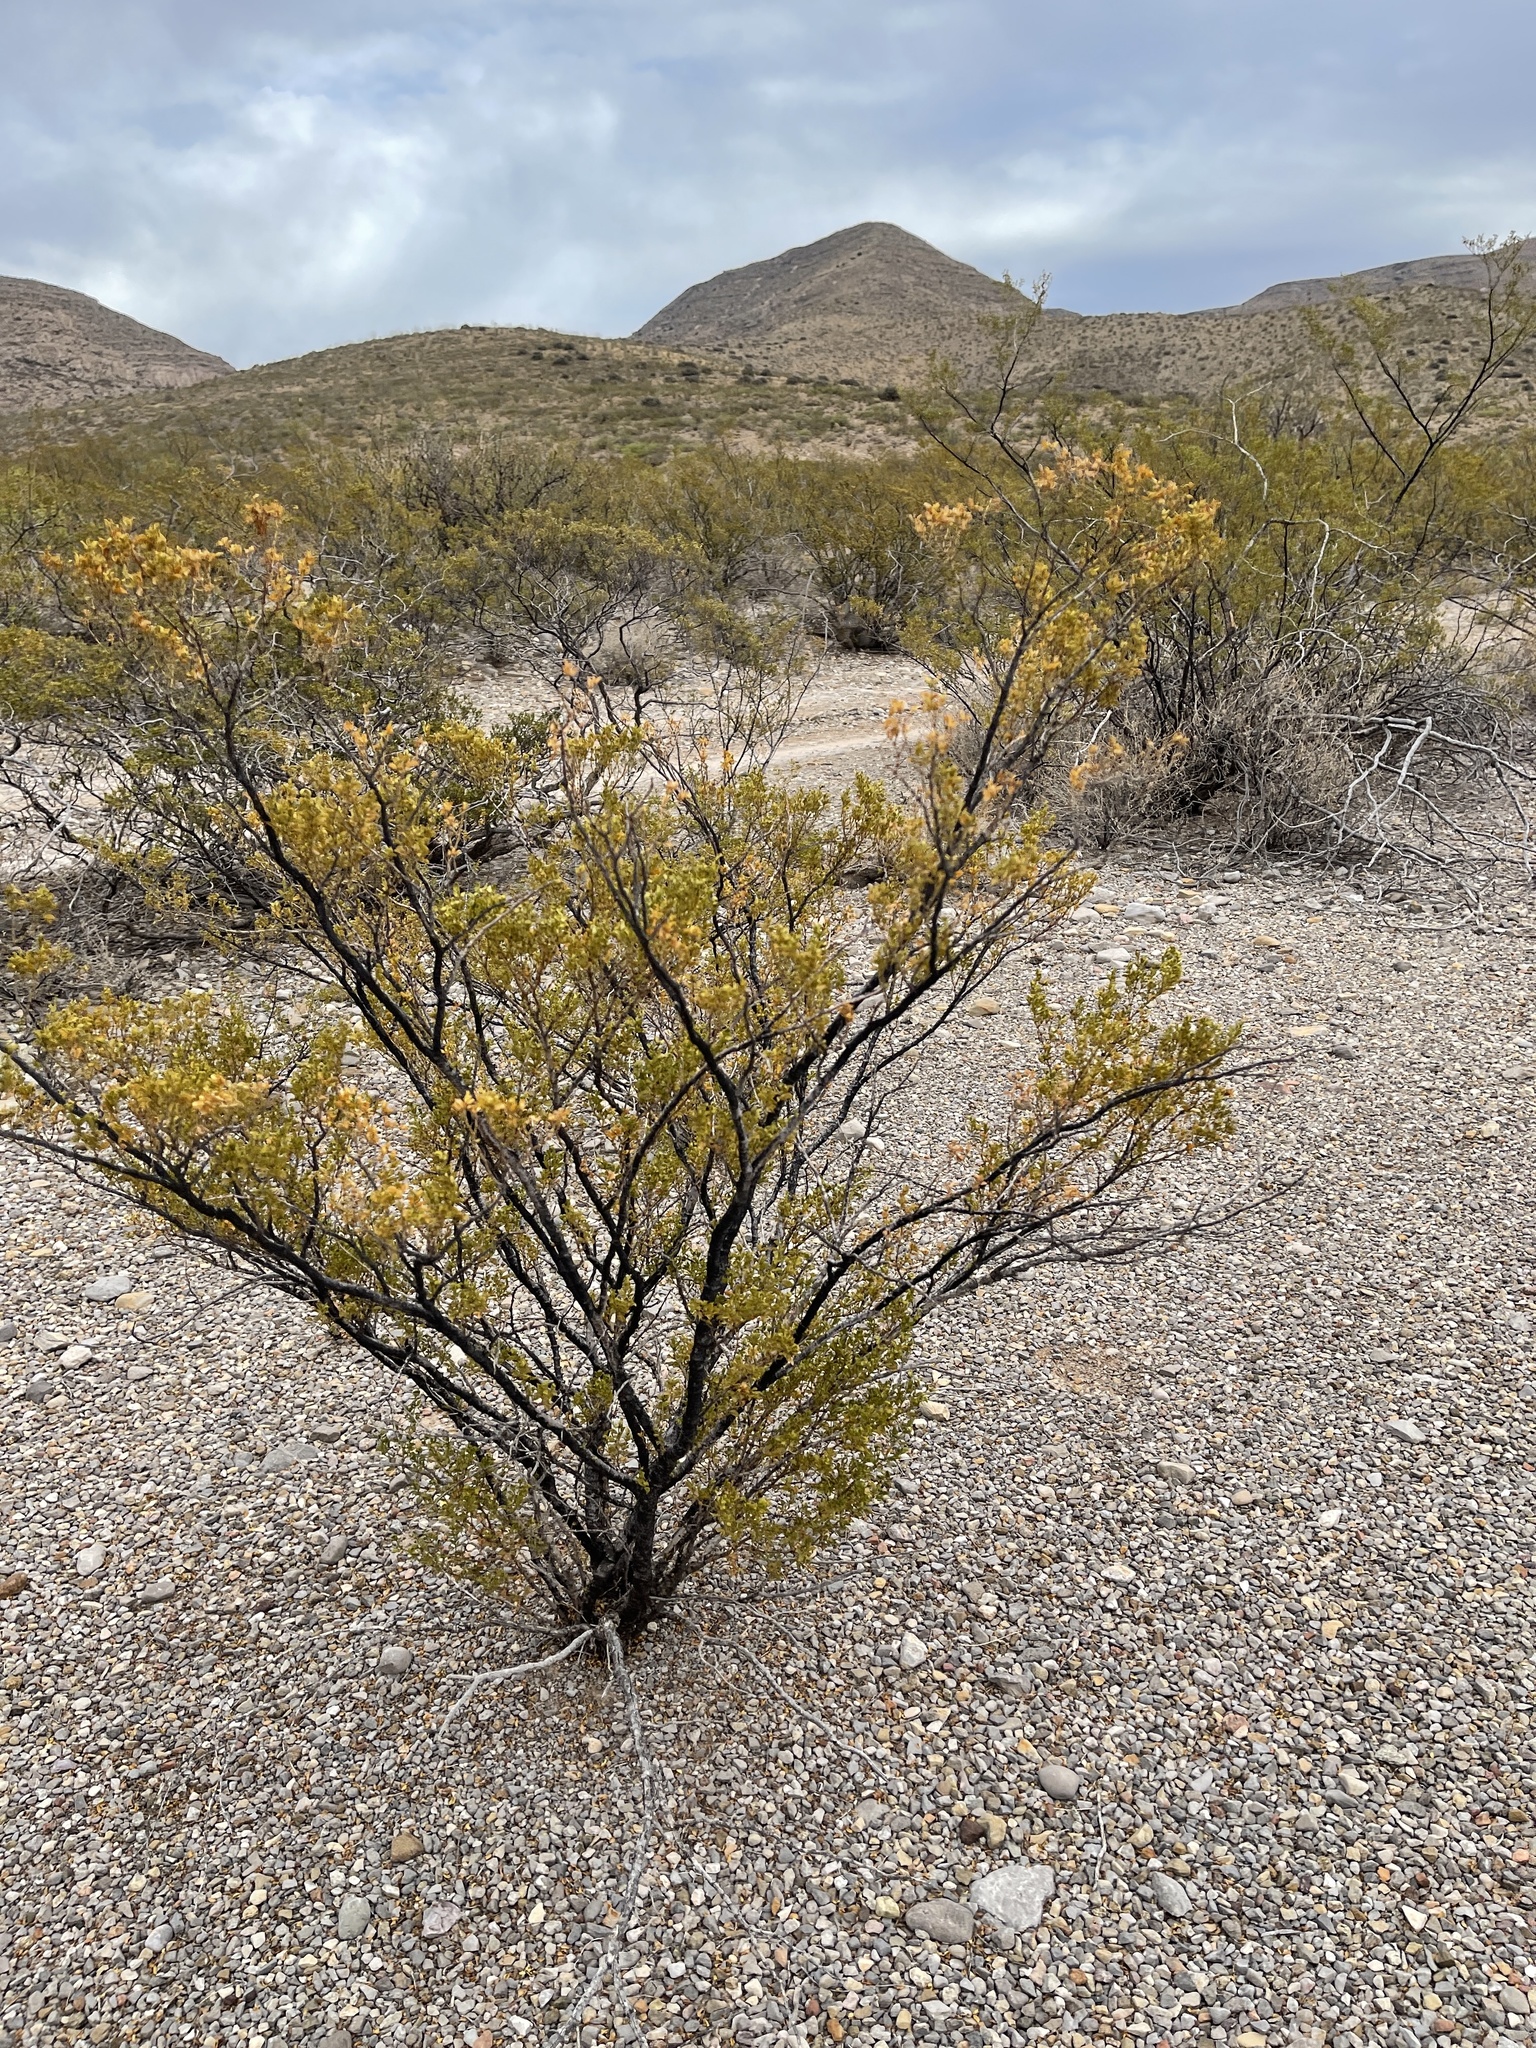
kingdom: Plantae
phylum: Tracheophyta
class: Magnoliopsida
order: Zygophyllales
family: Zygophyllaceae
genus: Larrea
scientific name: Larrea tridentata
